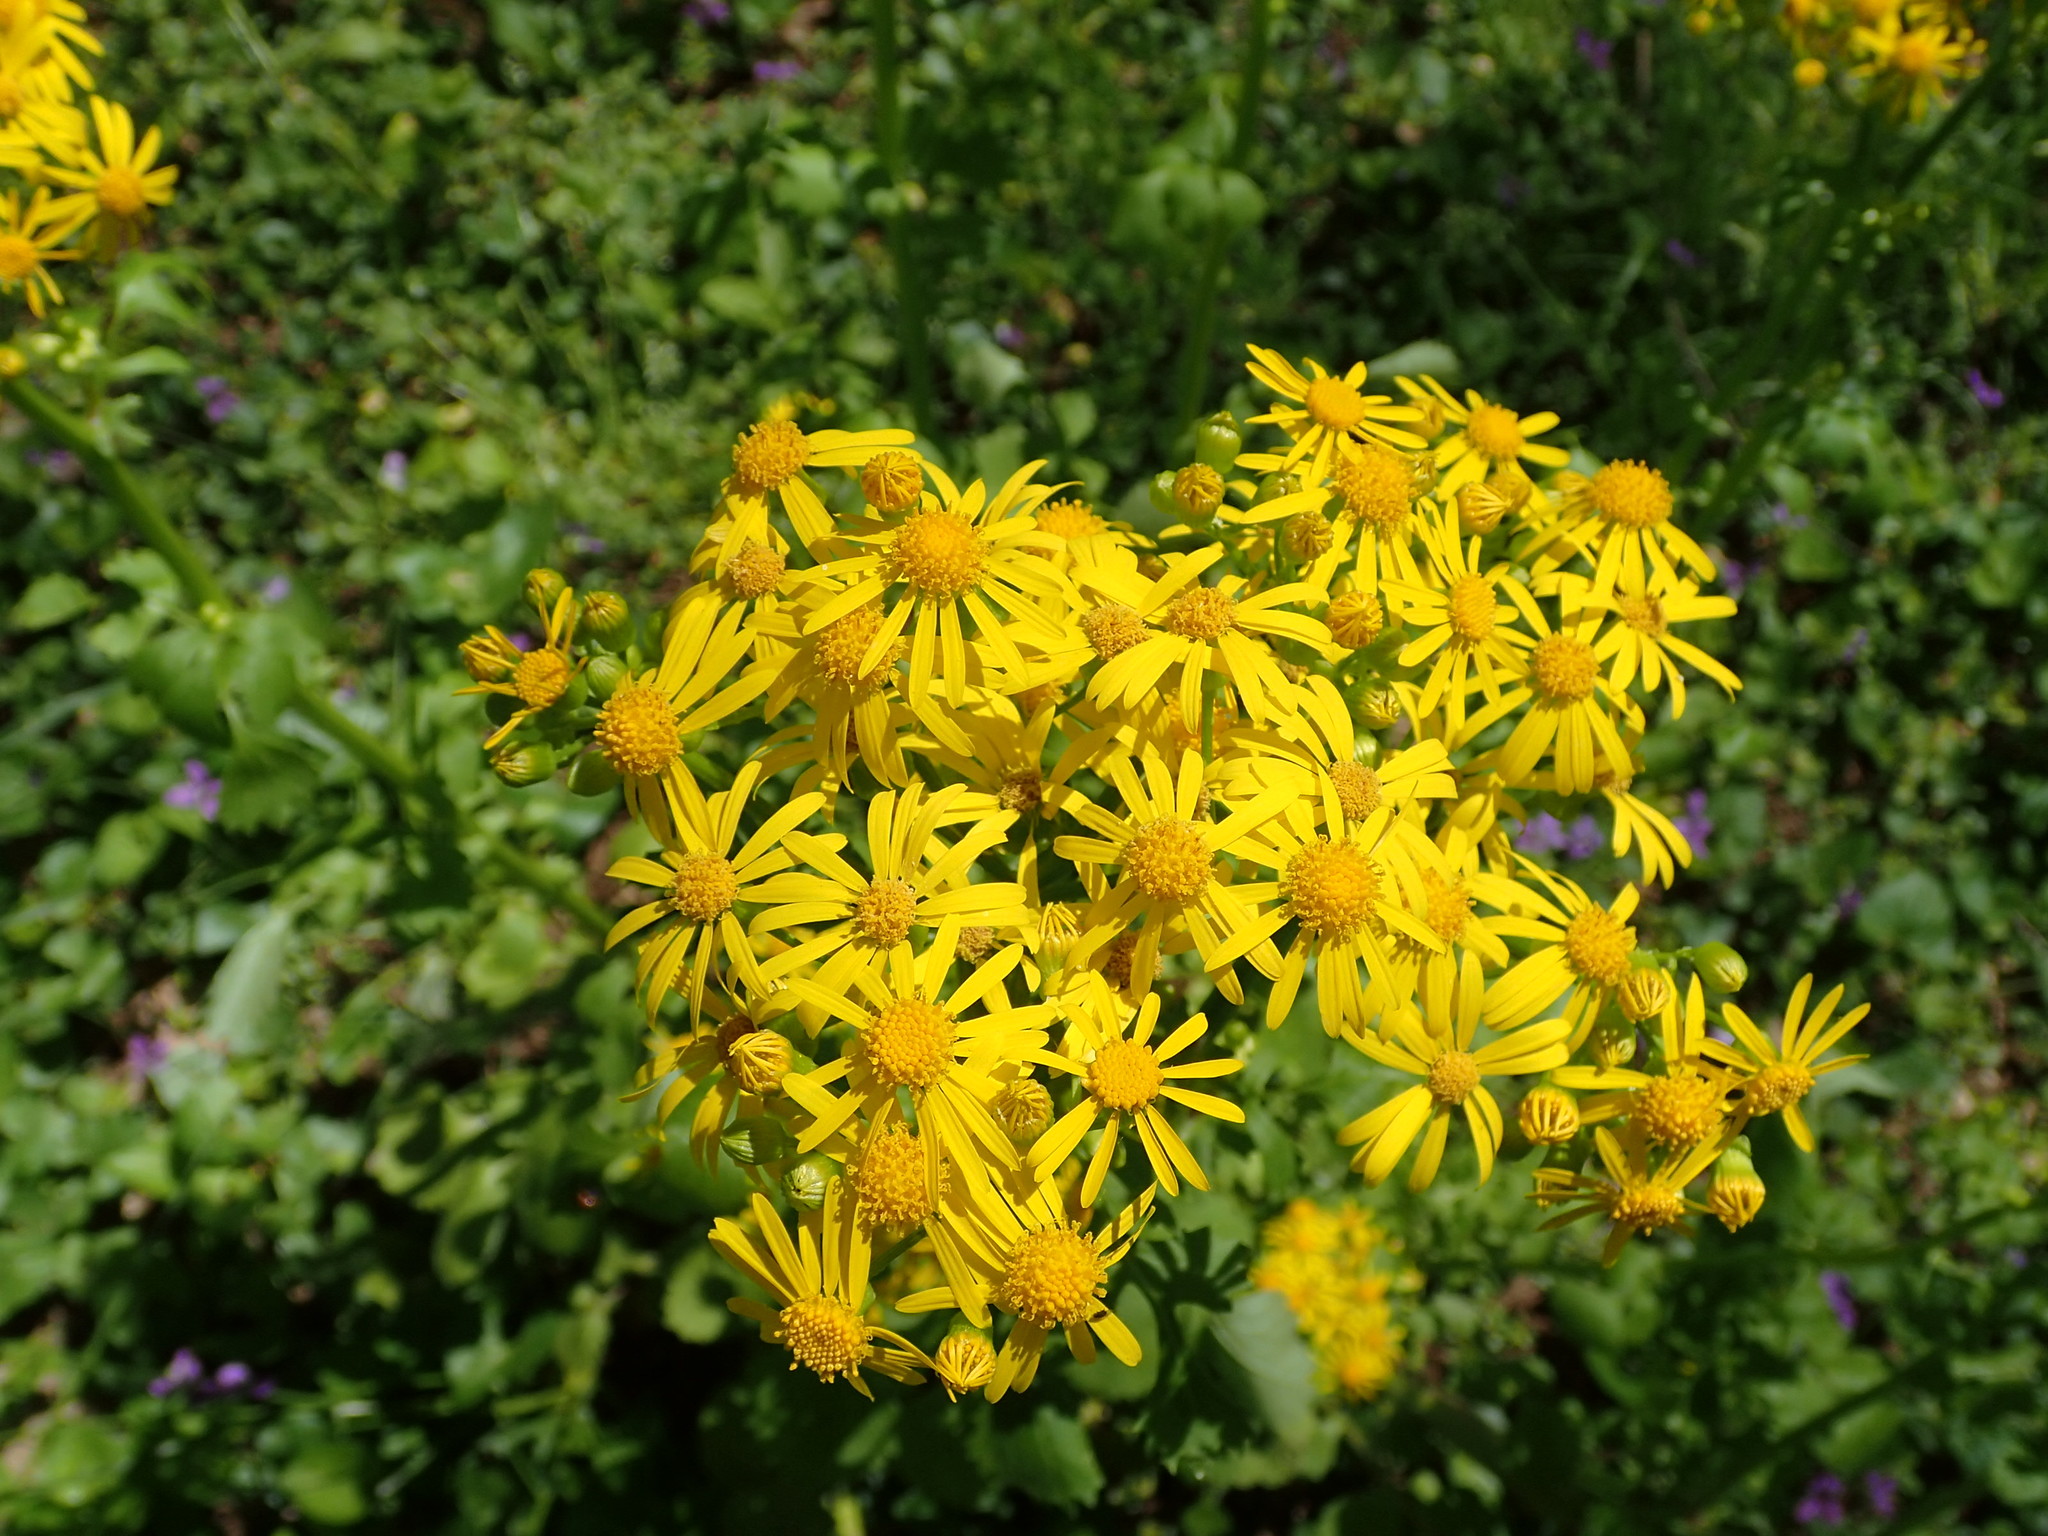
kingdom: Plantae
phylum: Tracheophyta
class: Magnoliopsida
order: Asterales
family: Asteraceae
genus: Packera
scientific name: Packera glabella
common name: Butterweed
